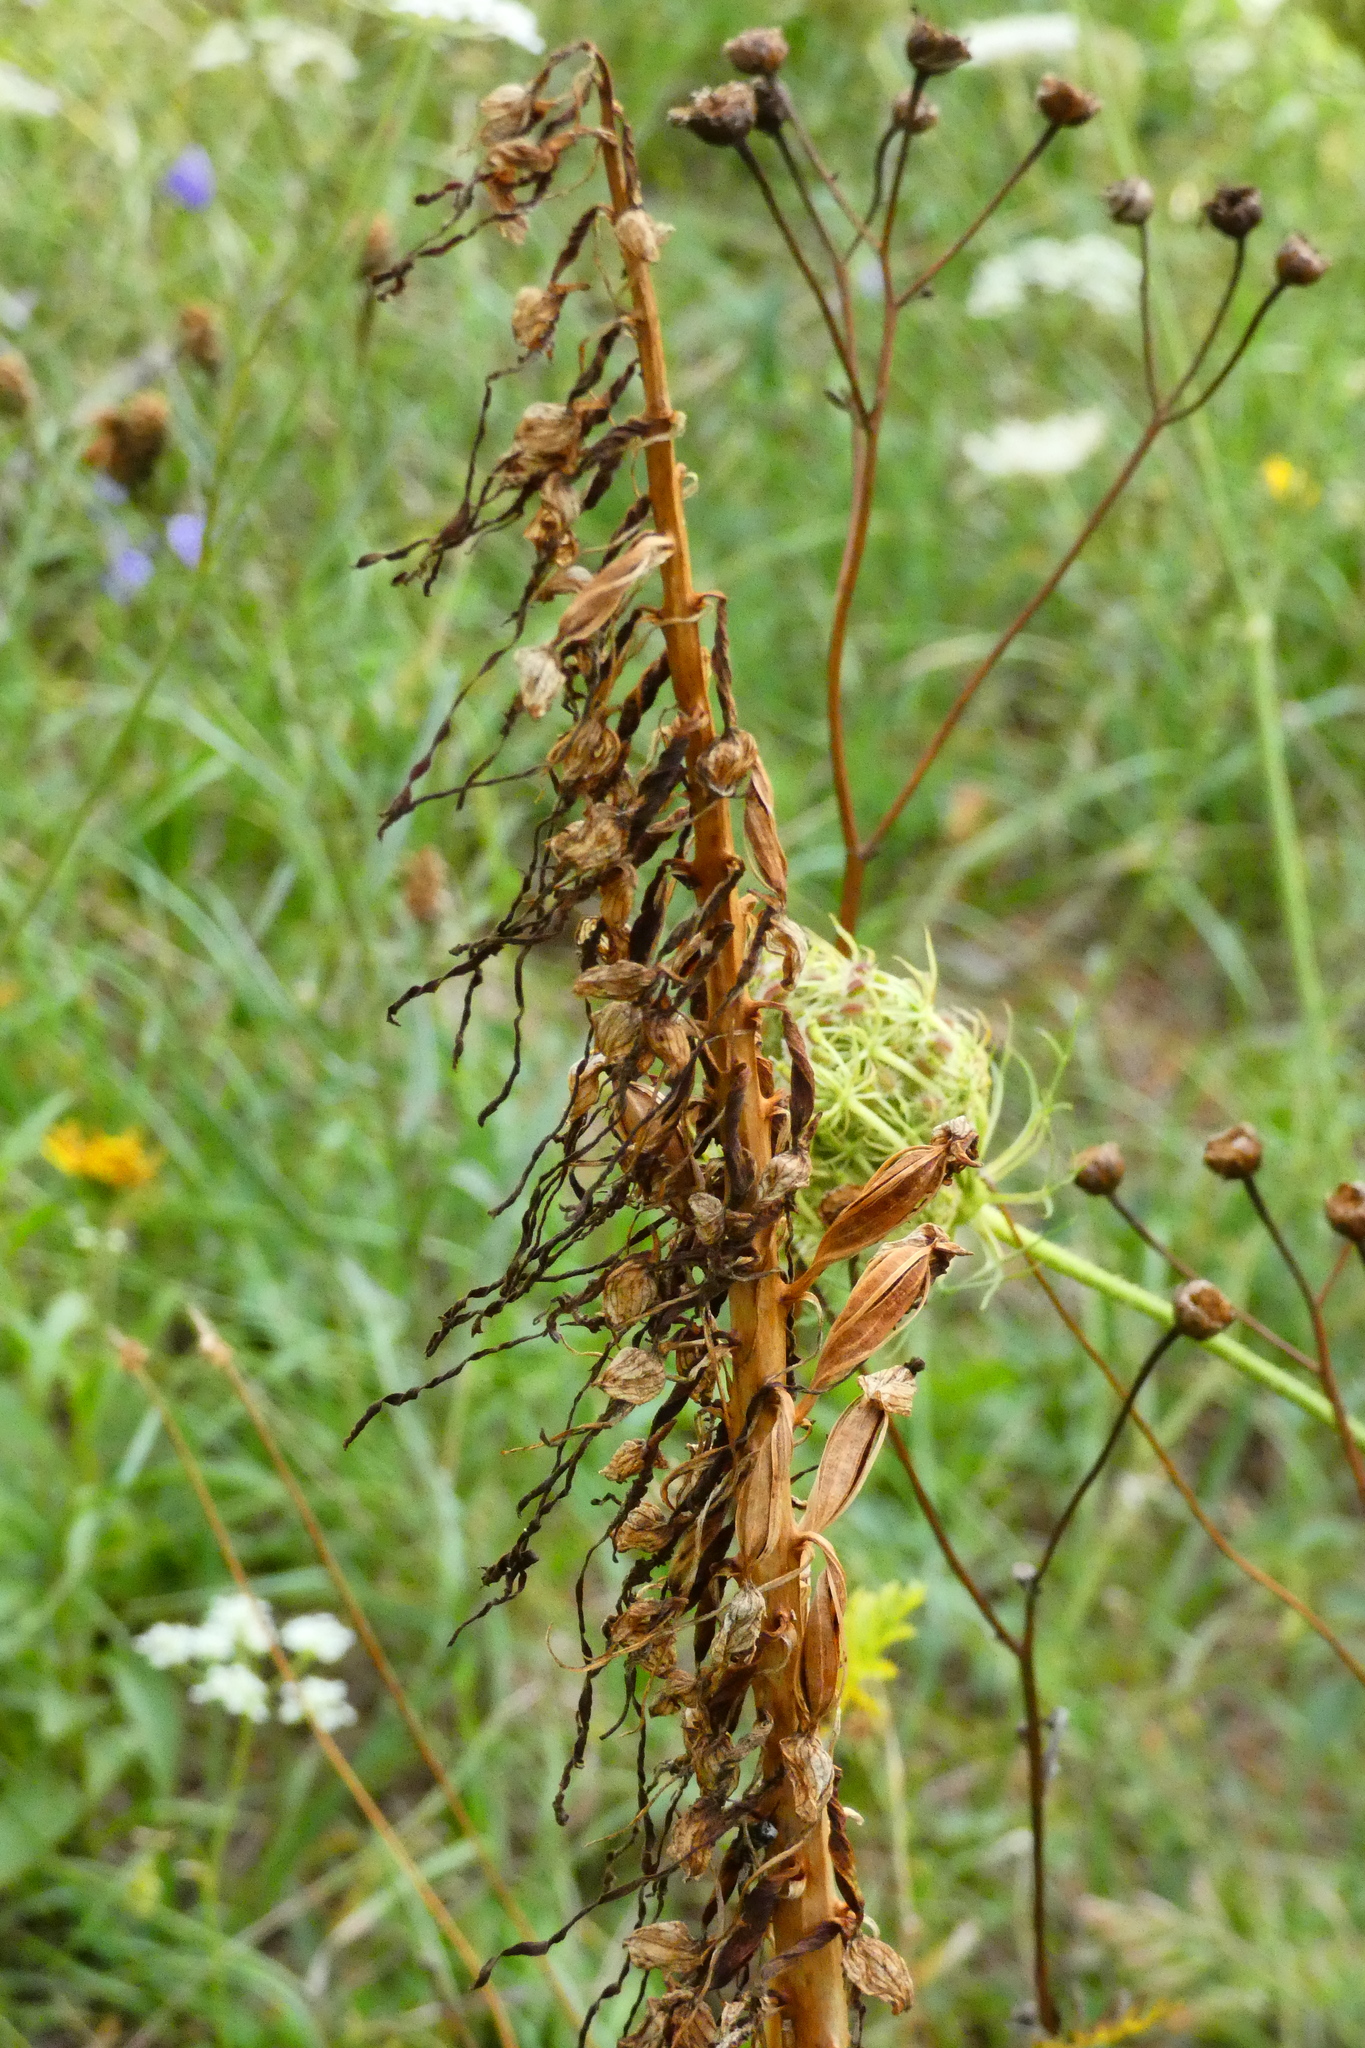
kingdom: Plantae
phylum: Tracheophyta
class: Liliopsida
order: Asparagales
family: Orchidaceae
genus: Himantoglossum
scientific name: Himantoglossum hircinum
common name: Lizard orchid
